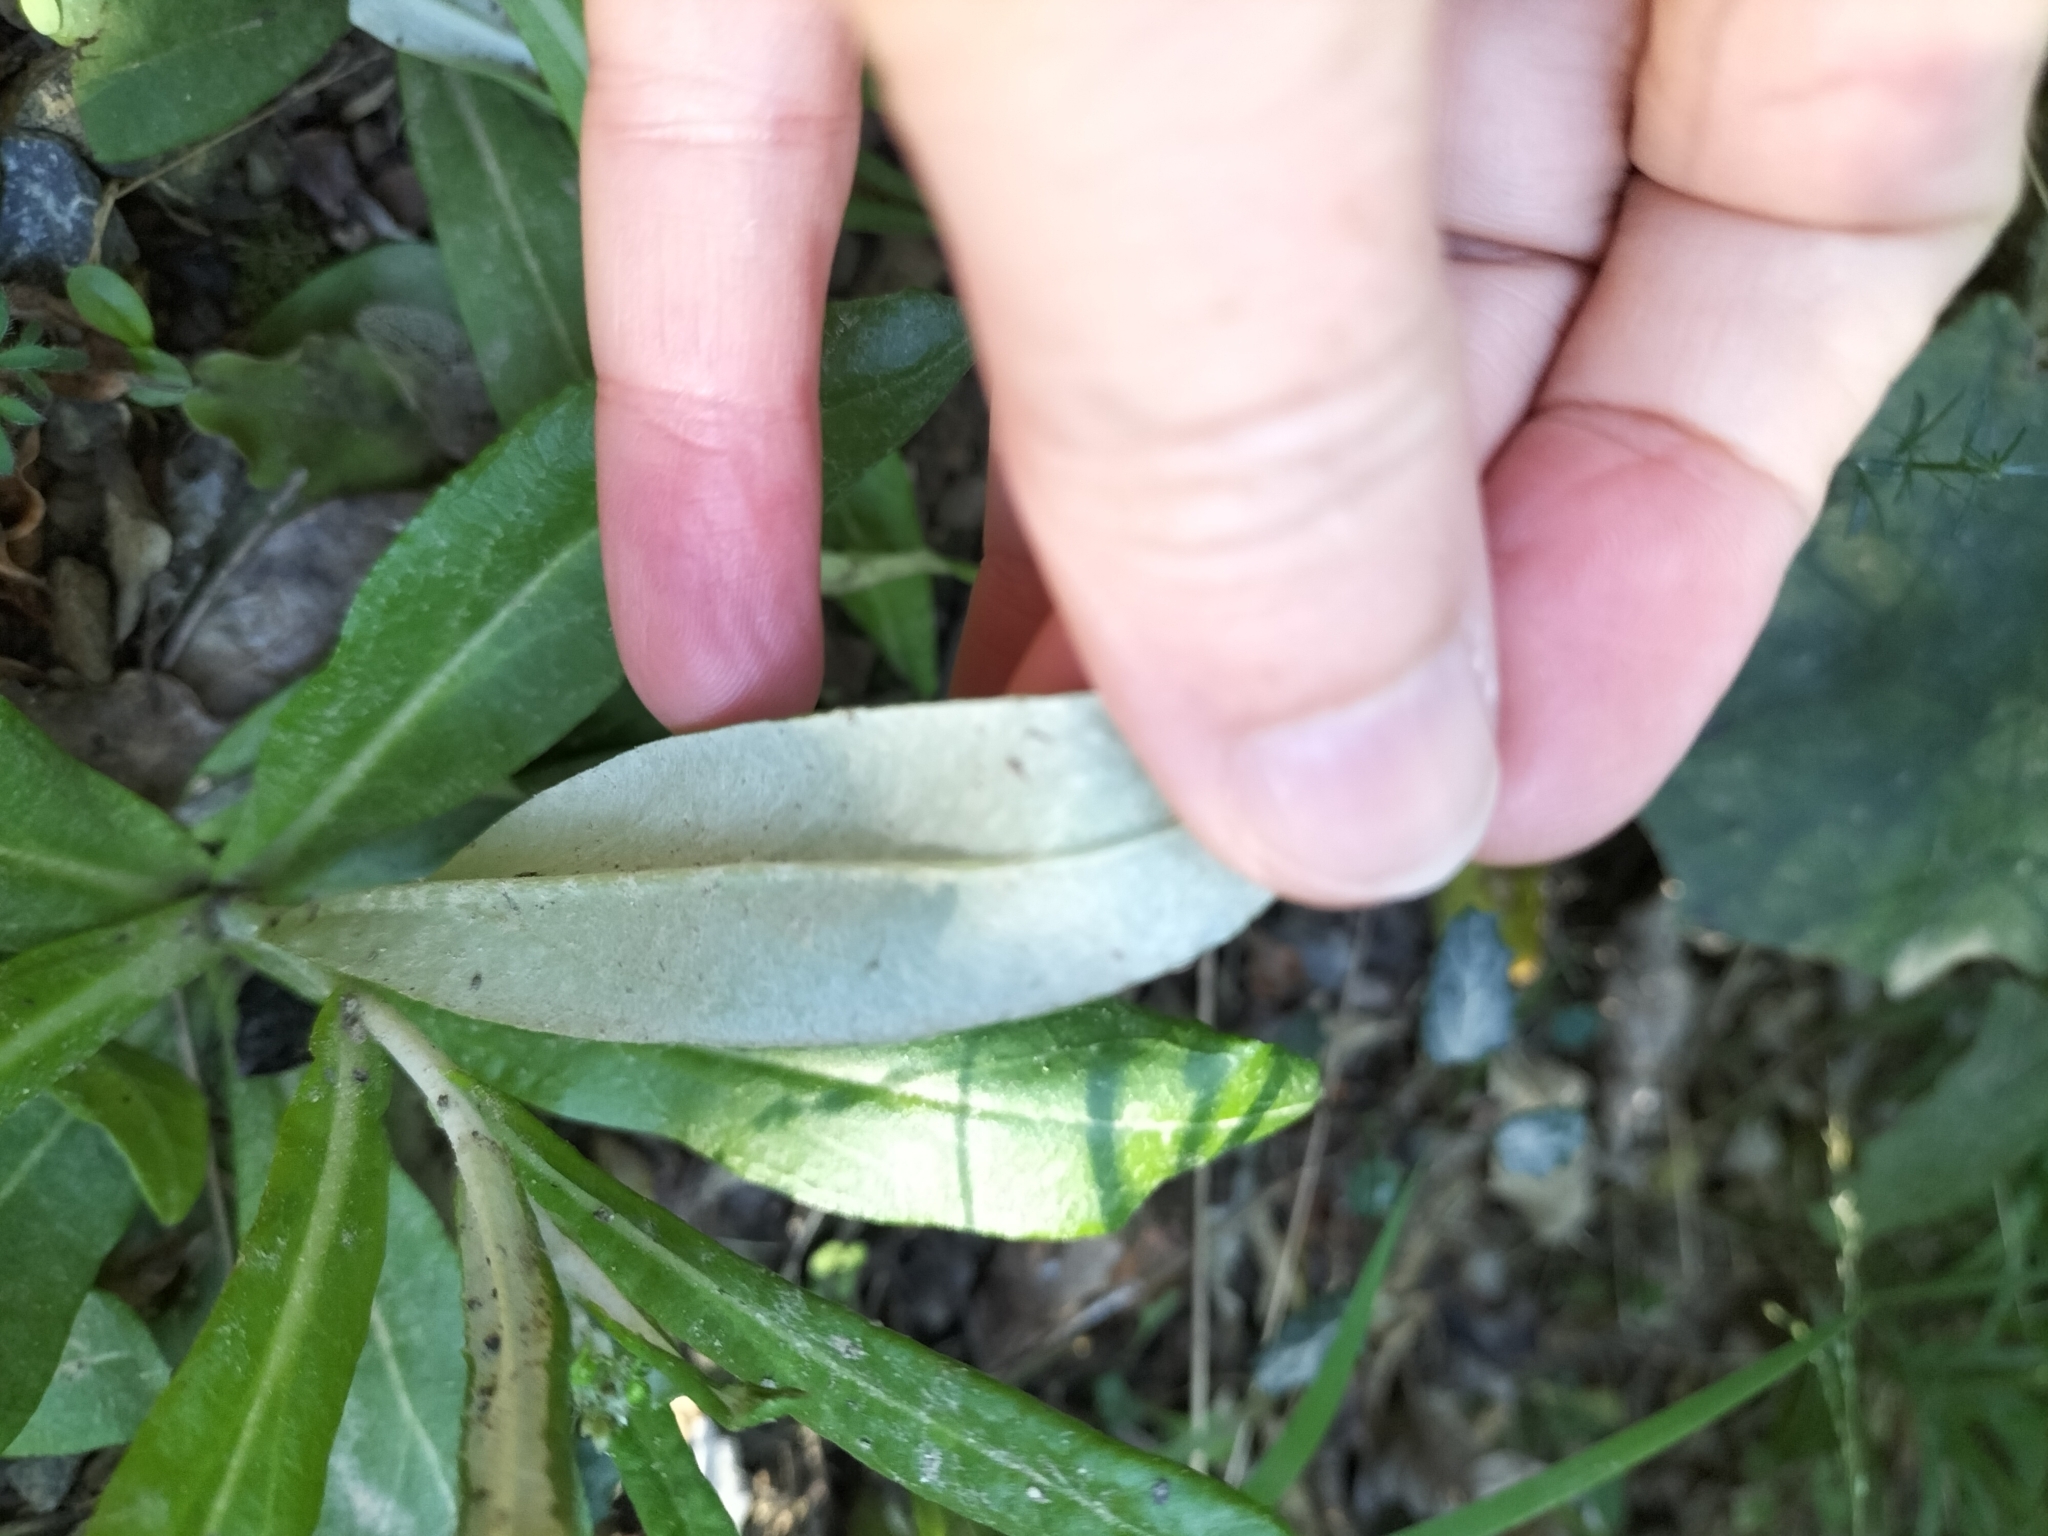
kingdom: Plantae
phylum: Tracheophyta
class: Magnoliopsida
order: Asterales
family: Asteraceae
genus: Gamochaeta
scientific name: Gamochaeta americana
